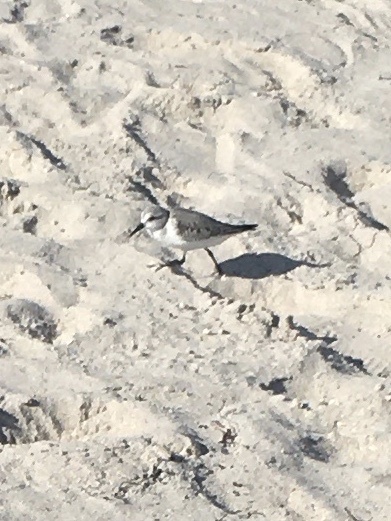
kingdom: Animalia
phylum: Chordata
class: Aves
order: Charadriiformes
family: Scolopacidae
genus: Calidris
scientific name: Calidris alba
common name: Sanderling
